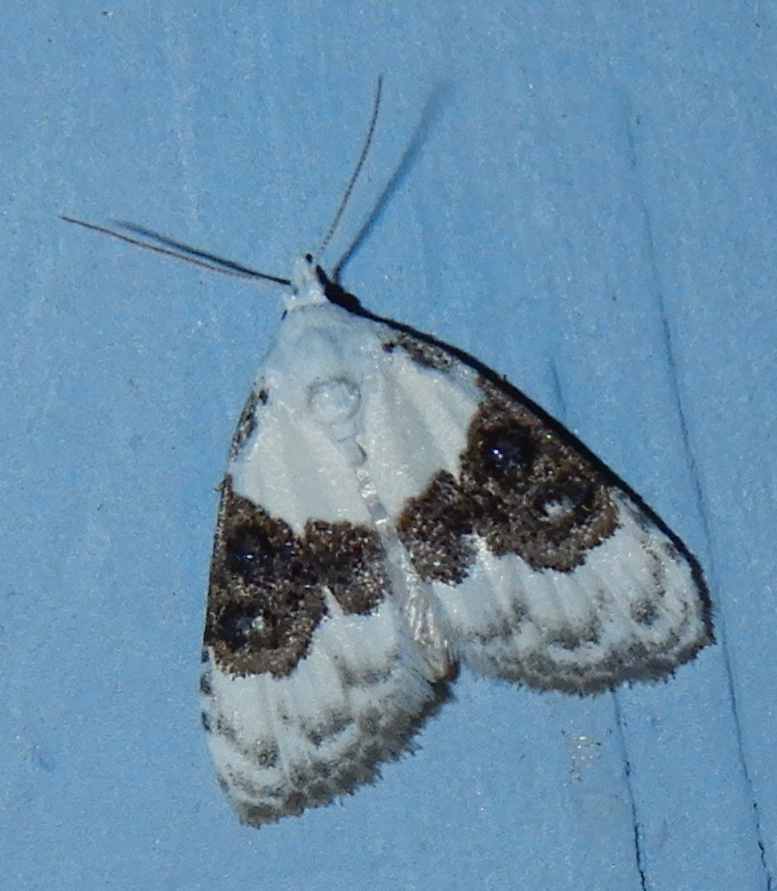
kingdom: Animalia
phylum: Arthropoda
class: Insecta
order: Lepidoptera
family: Nolidae
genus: Nola
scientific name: Nola pustulata
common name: Sharp-blotched nola moth
